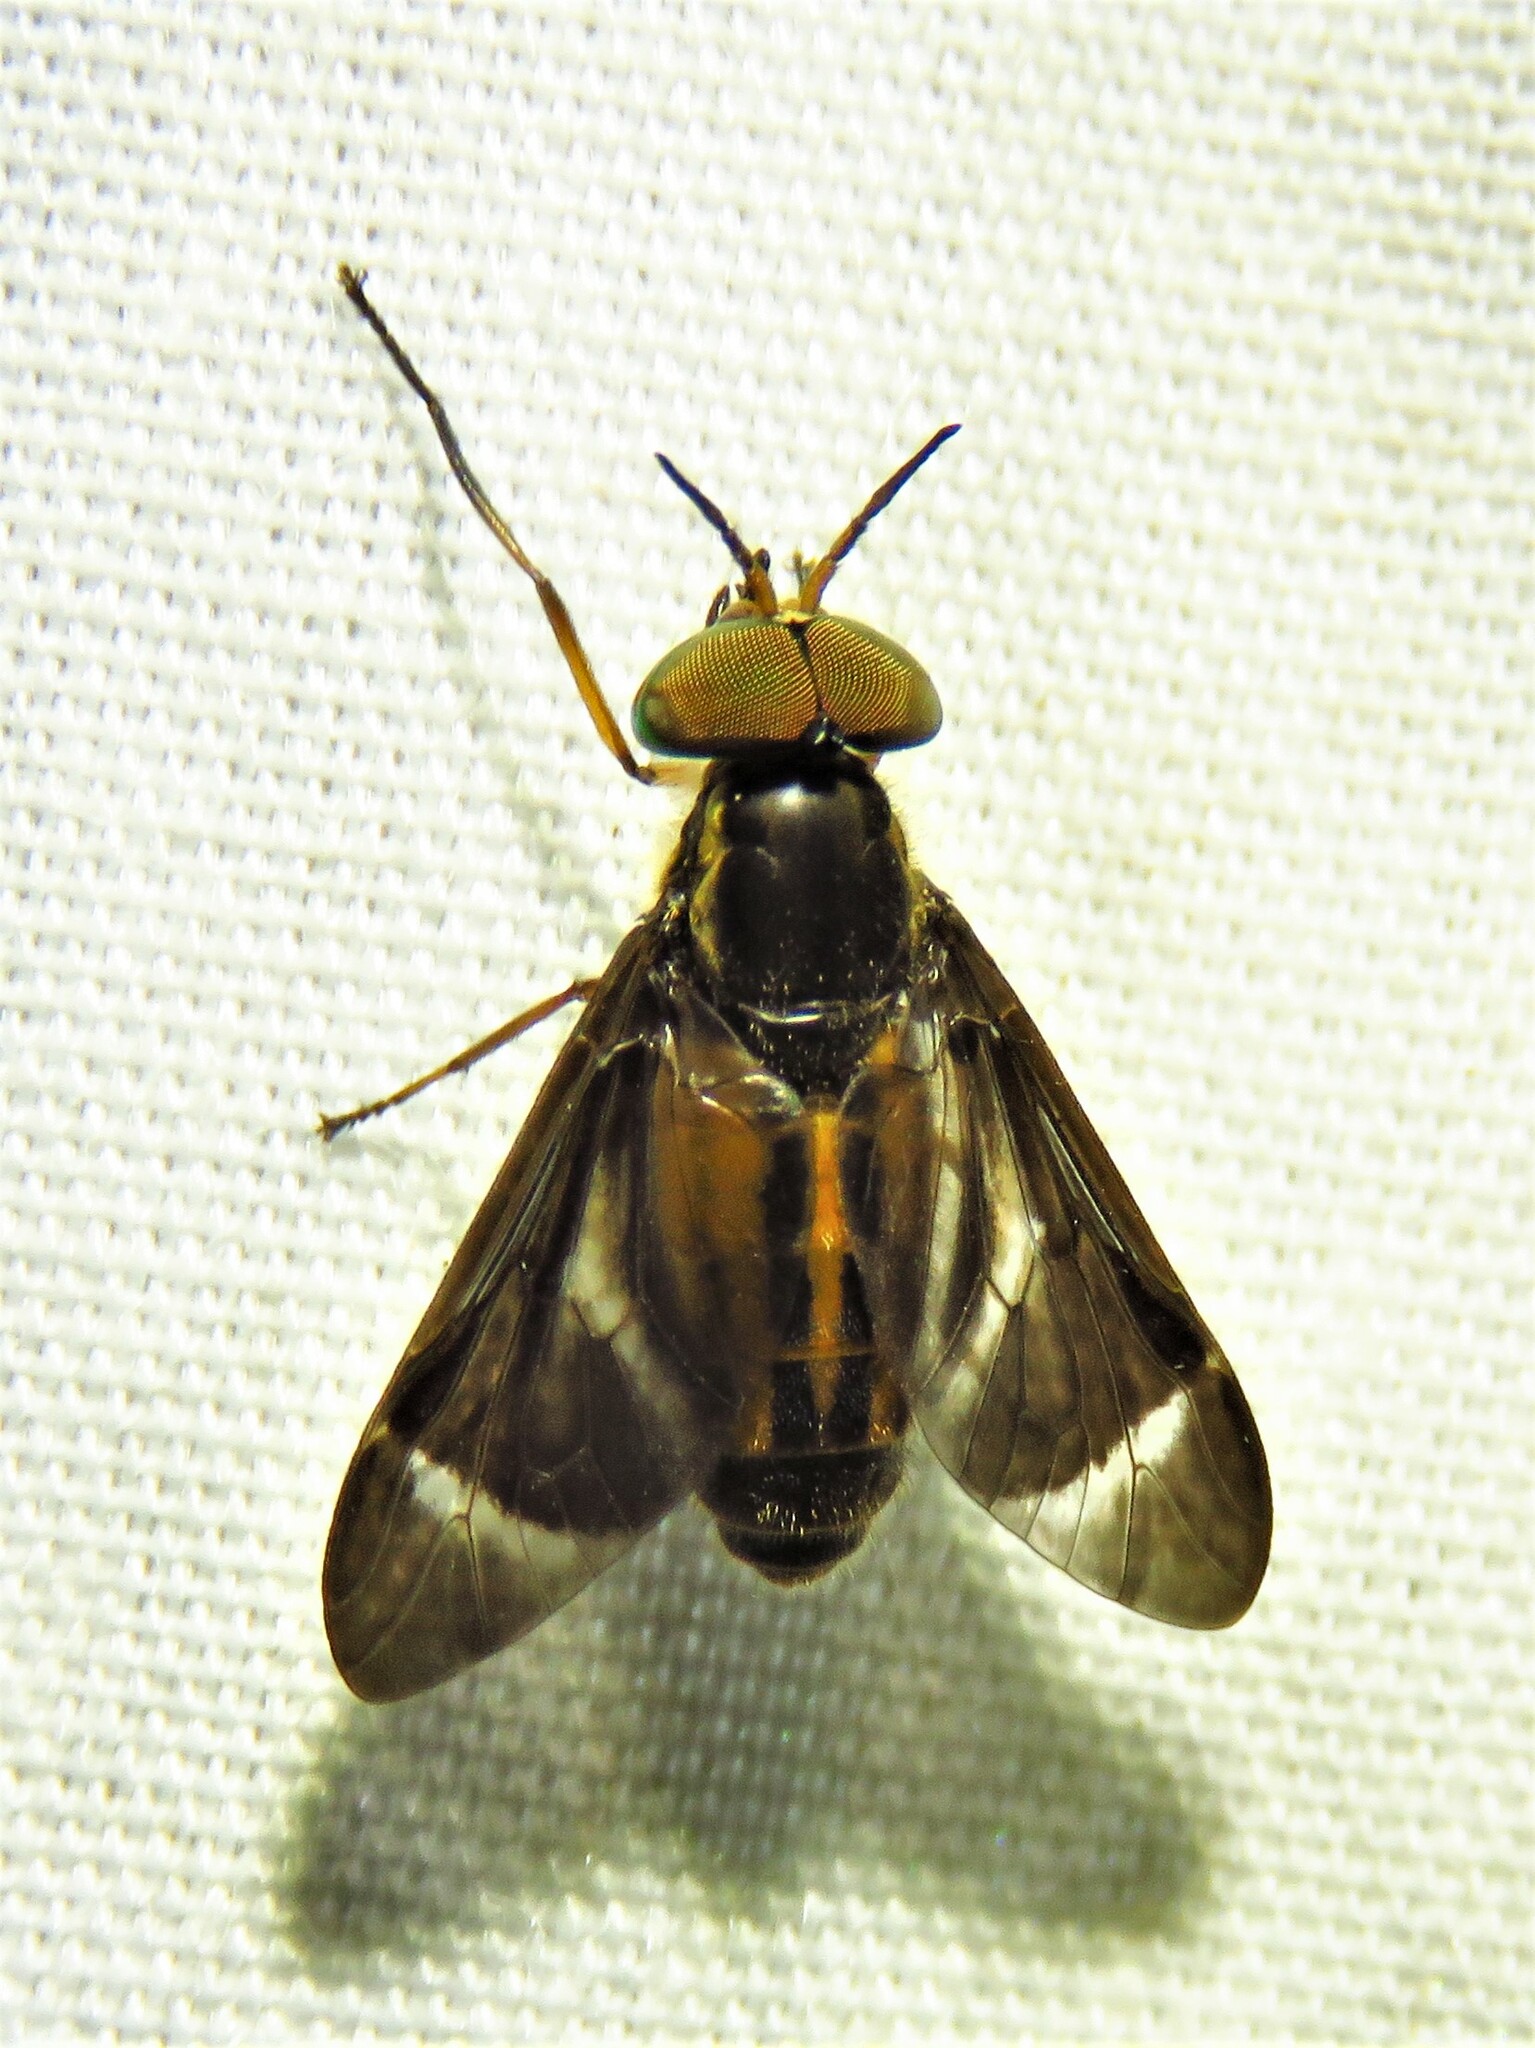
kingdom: Animalia
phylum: Arthropoda
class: Insecta
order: Diptera
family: Tabanidae
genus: Chrysops
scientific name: Chrysops pikei
